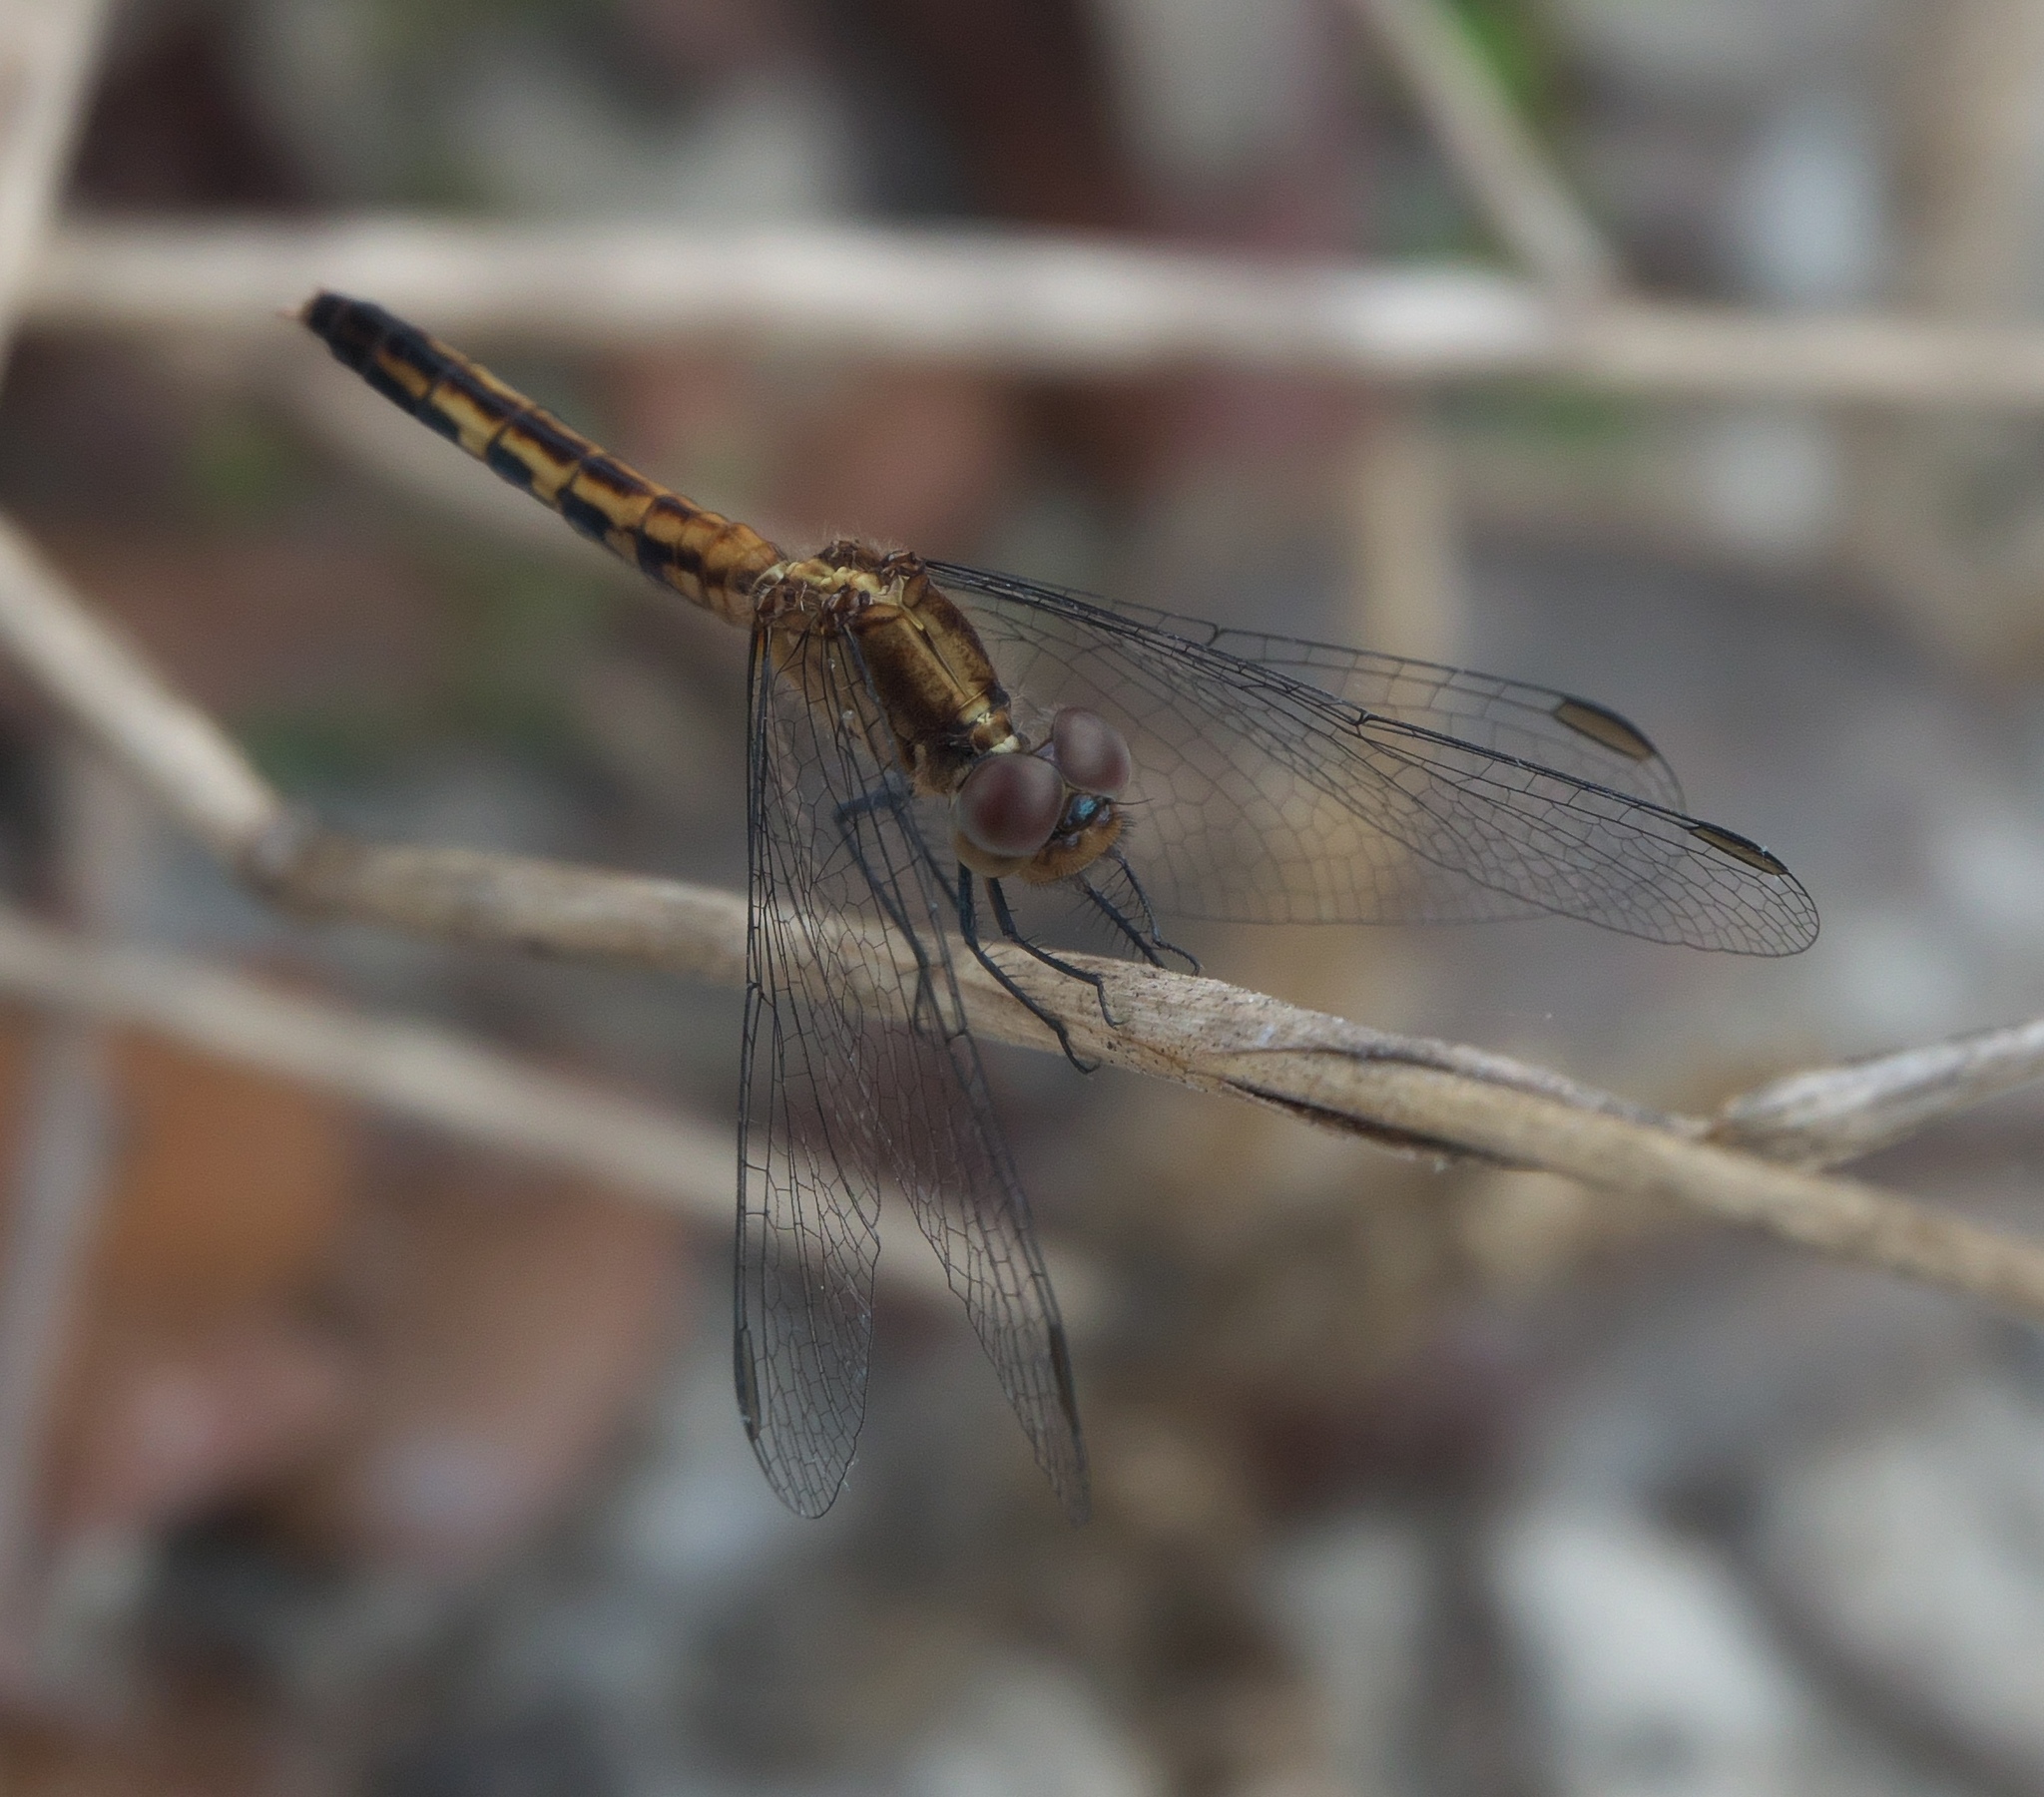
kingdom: Animalia
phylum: Arthropoda
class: Insecta
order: Odonata
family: Libellulidae
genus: Erythrodiplax
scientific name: Erythrodiplax minuscula
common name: Little blue dragonlet
